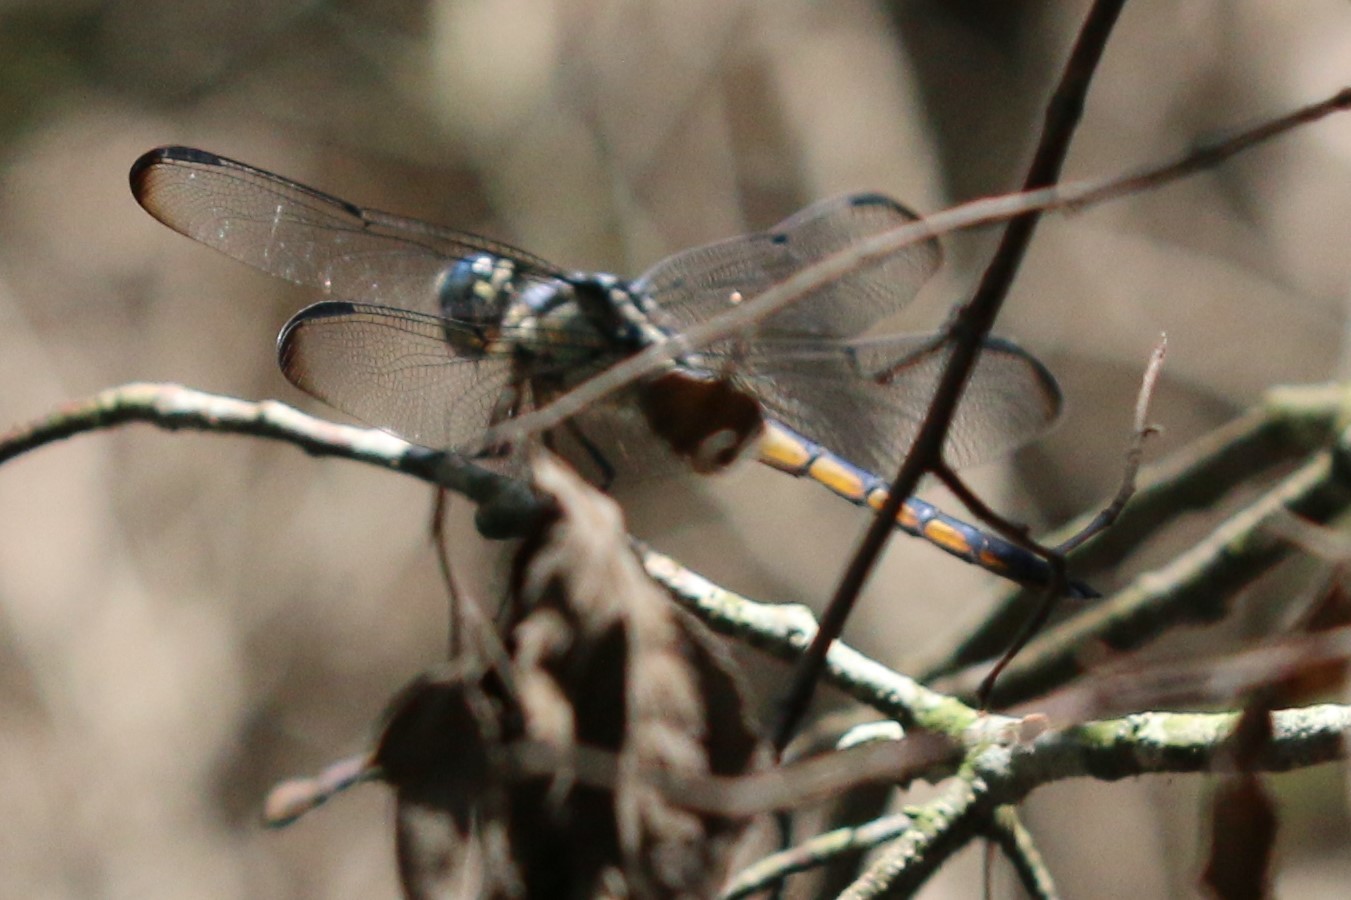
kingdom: Animalia
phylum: Arthropoda
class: Insecta
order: Odonata
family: Libellulidae
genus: Libellula
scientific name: Libellula vibrans
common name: Great blue skimmer
